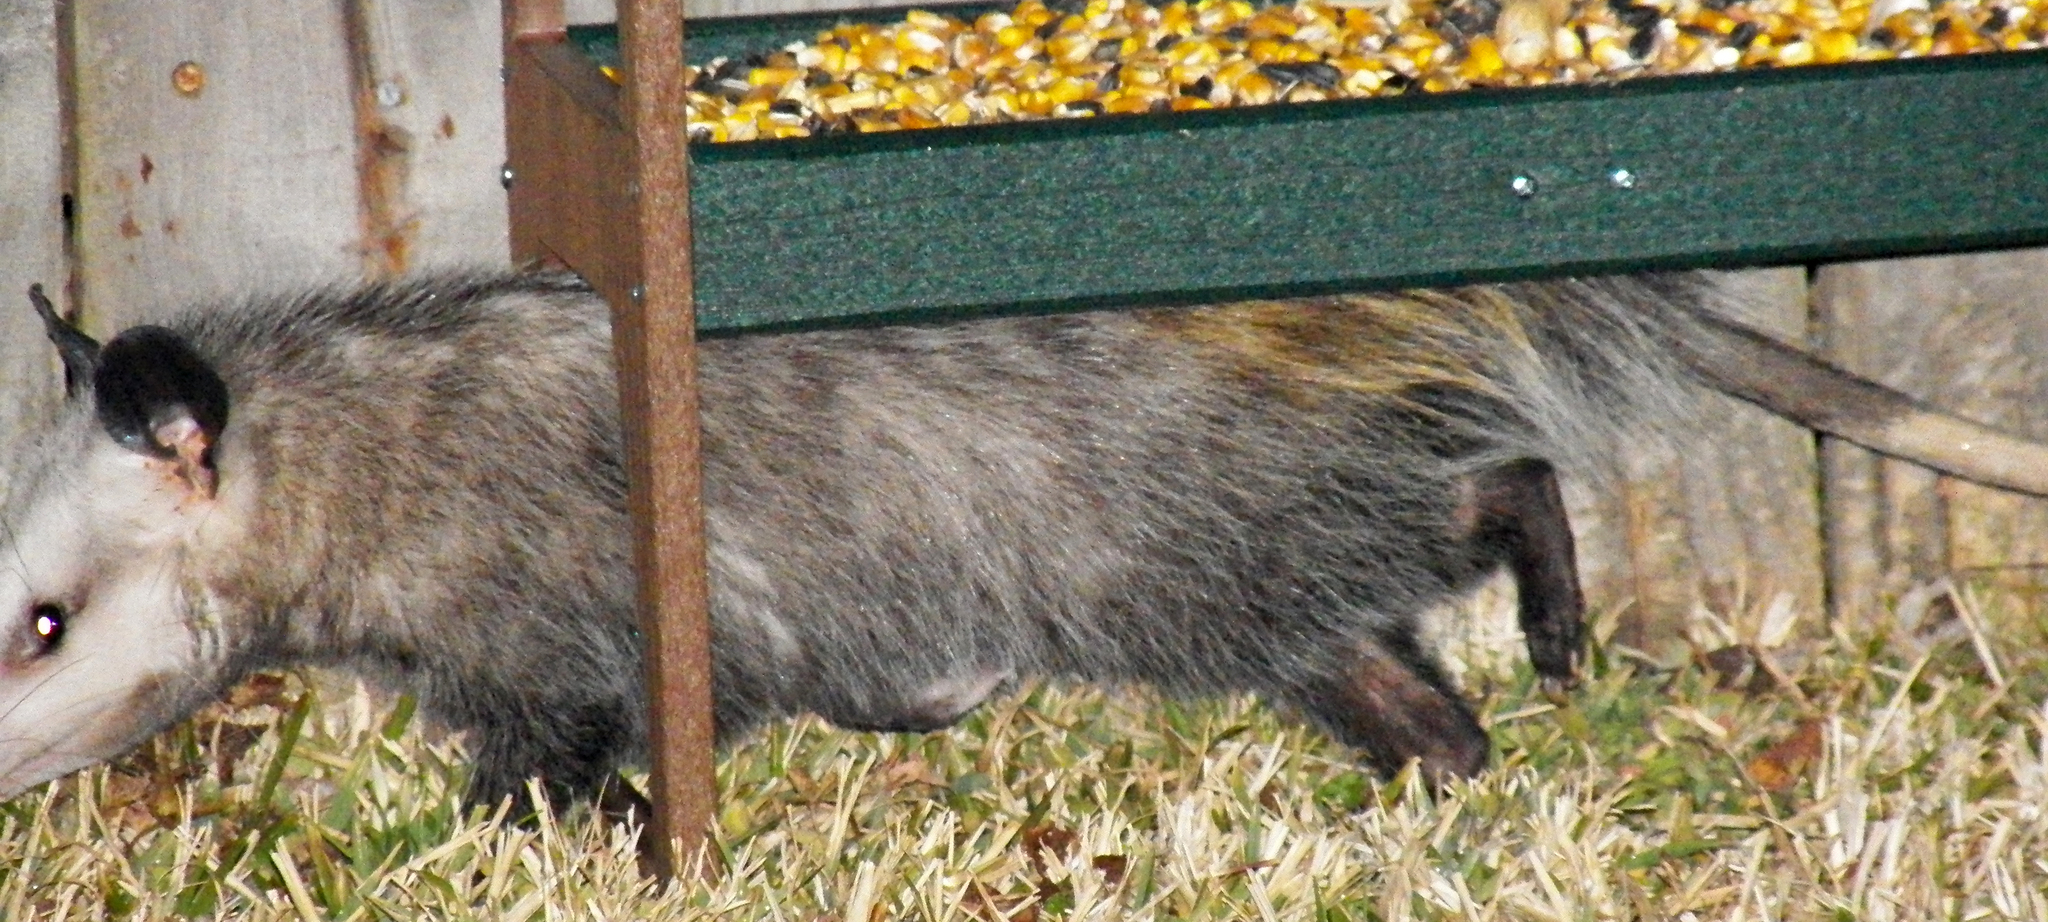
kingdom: Animalia
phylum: Chordata
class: Mammalia
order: Didelphimorphia
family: Didelphidae
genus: Didelphis
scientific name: Didelphis virginiana
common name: Virginia opossum
